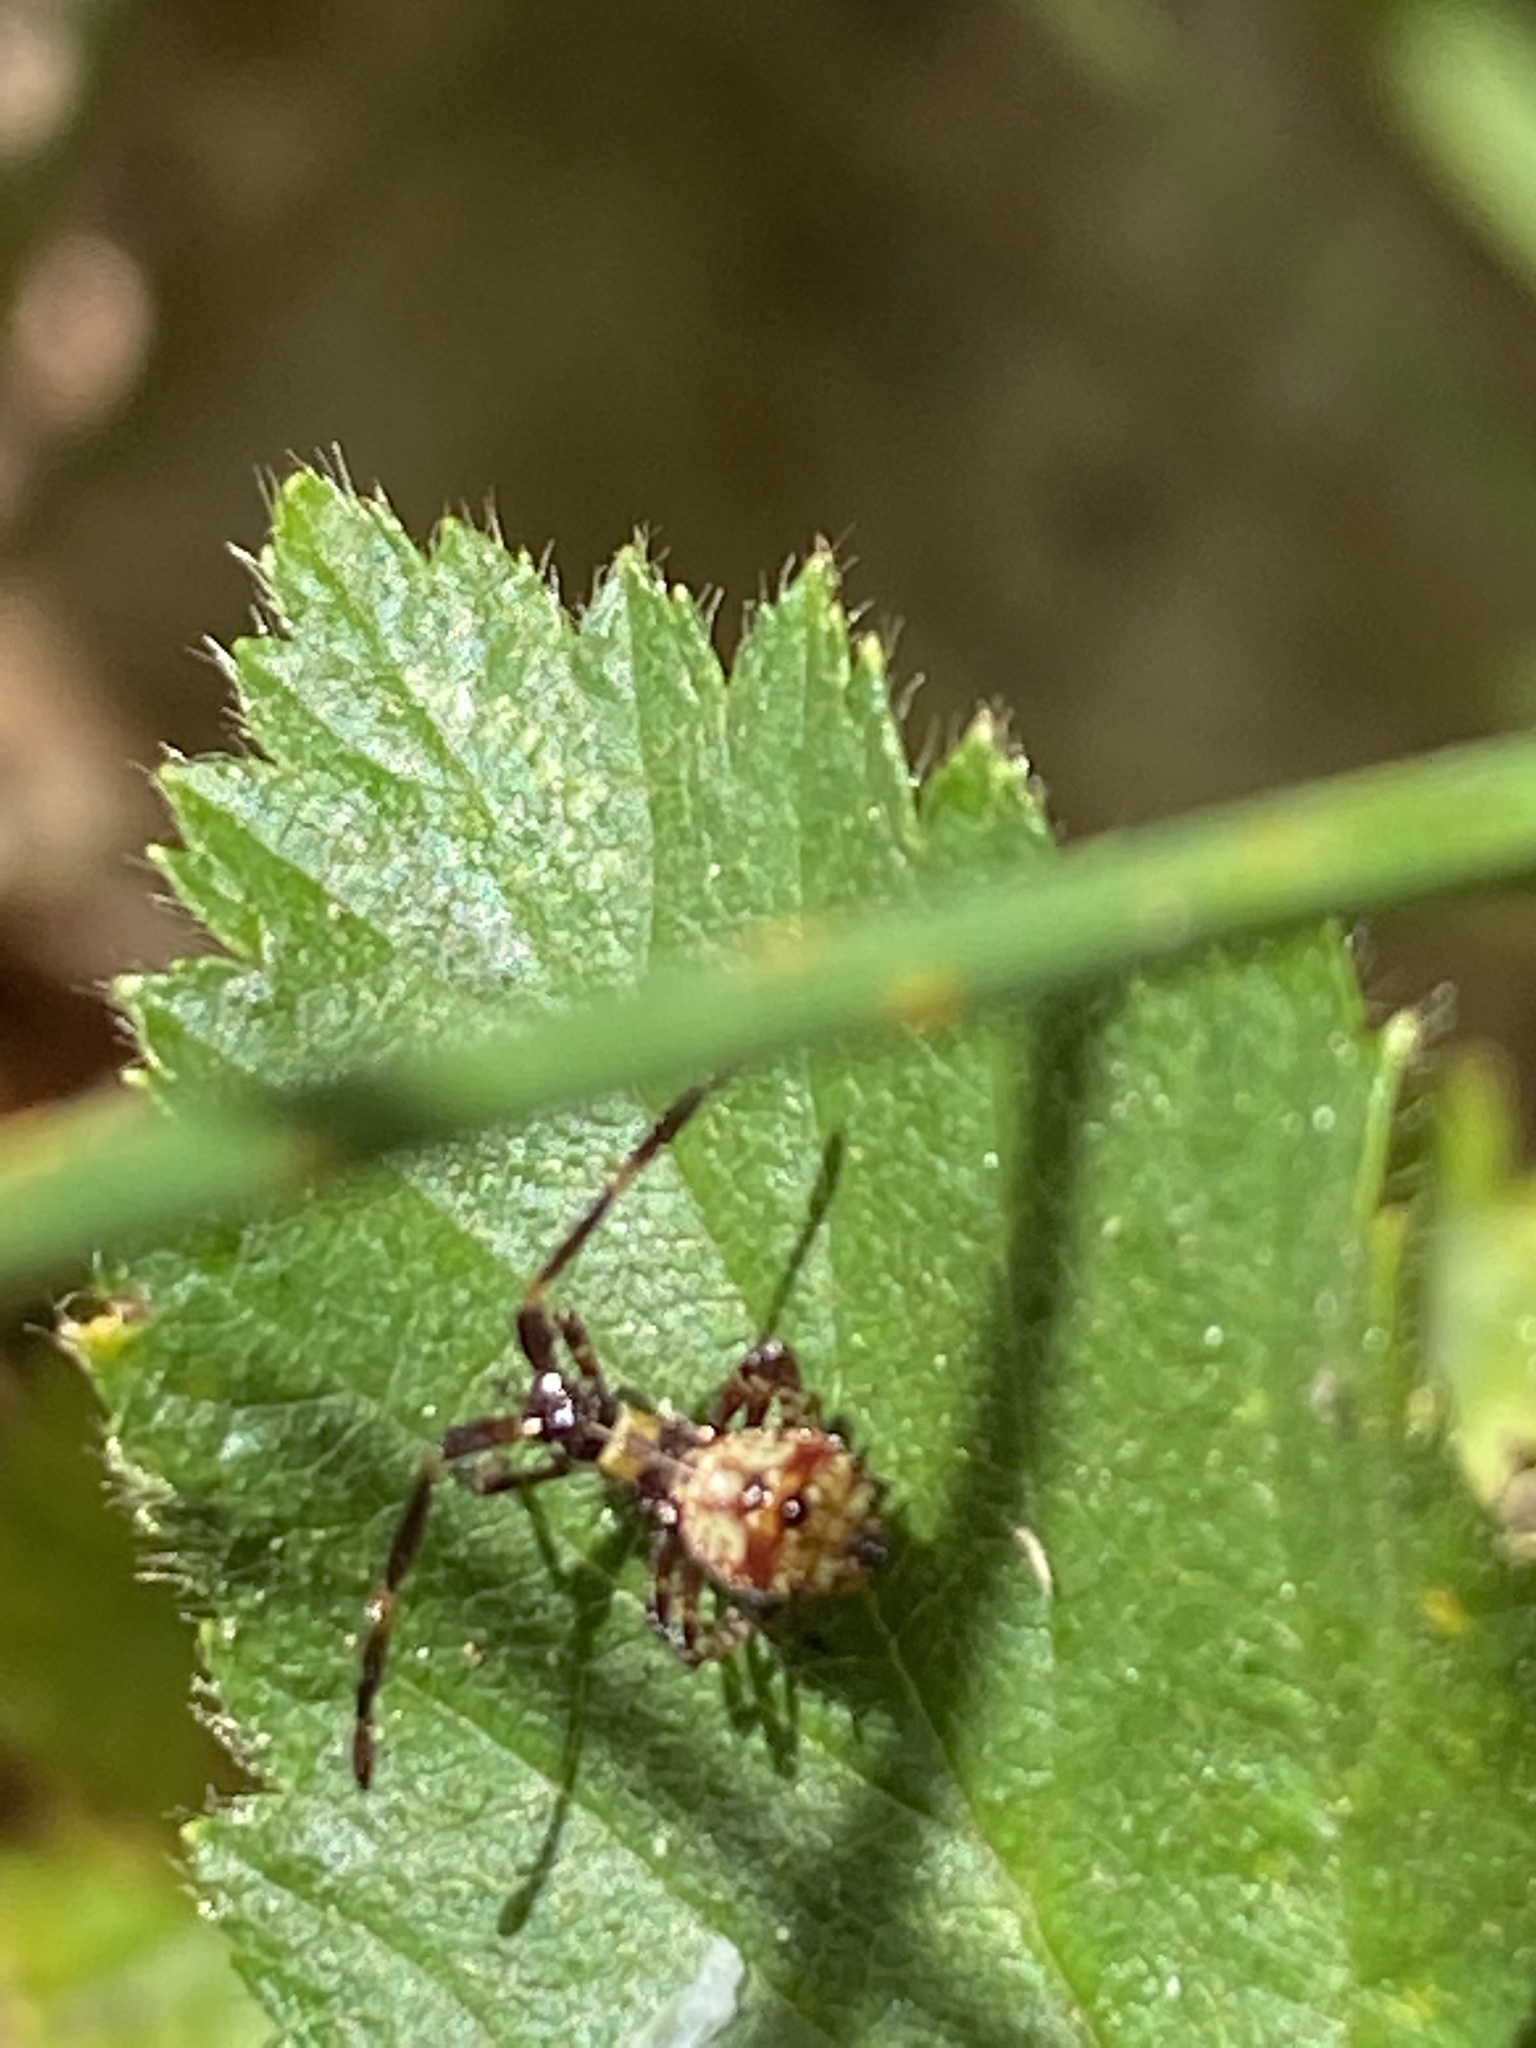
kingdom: Animalia
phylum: Arthropoda
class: Insecta
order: Hemiptera
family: Coreidae
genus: Coreus
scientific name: Coreus marginatus
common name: Dock bug
